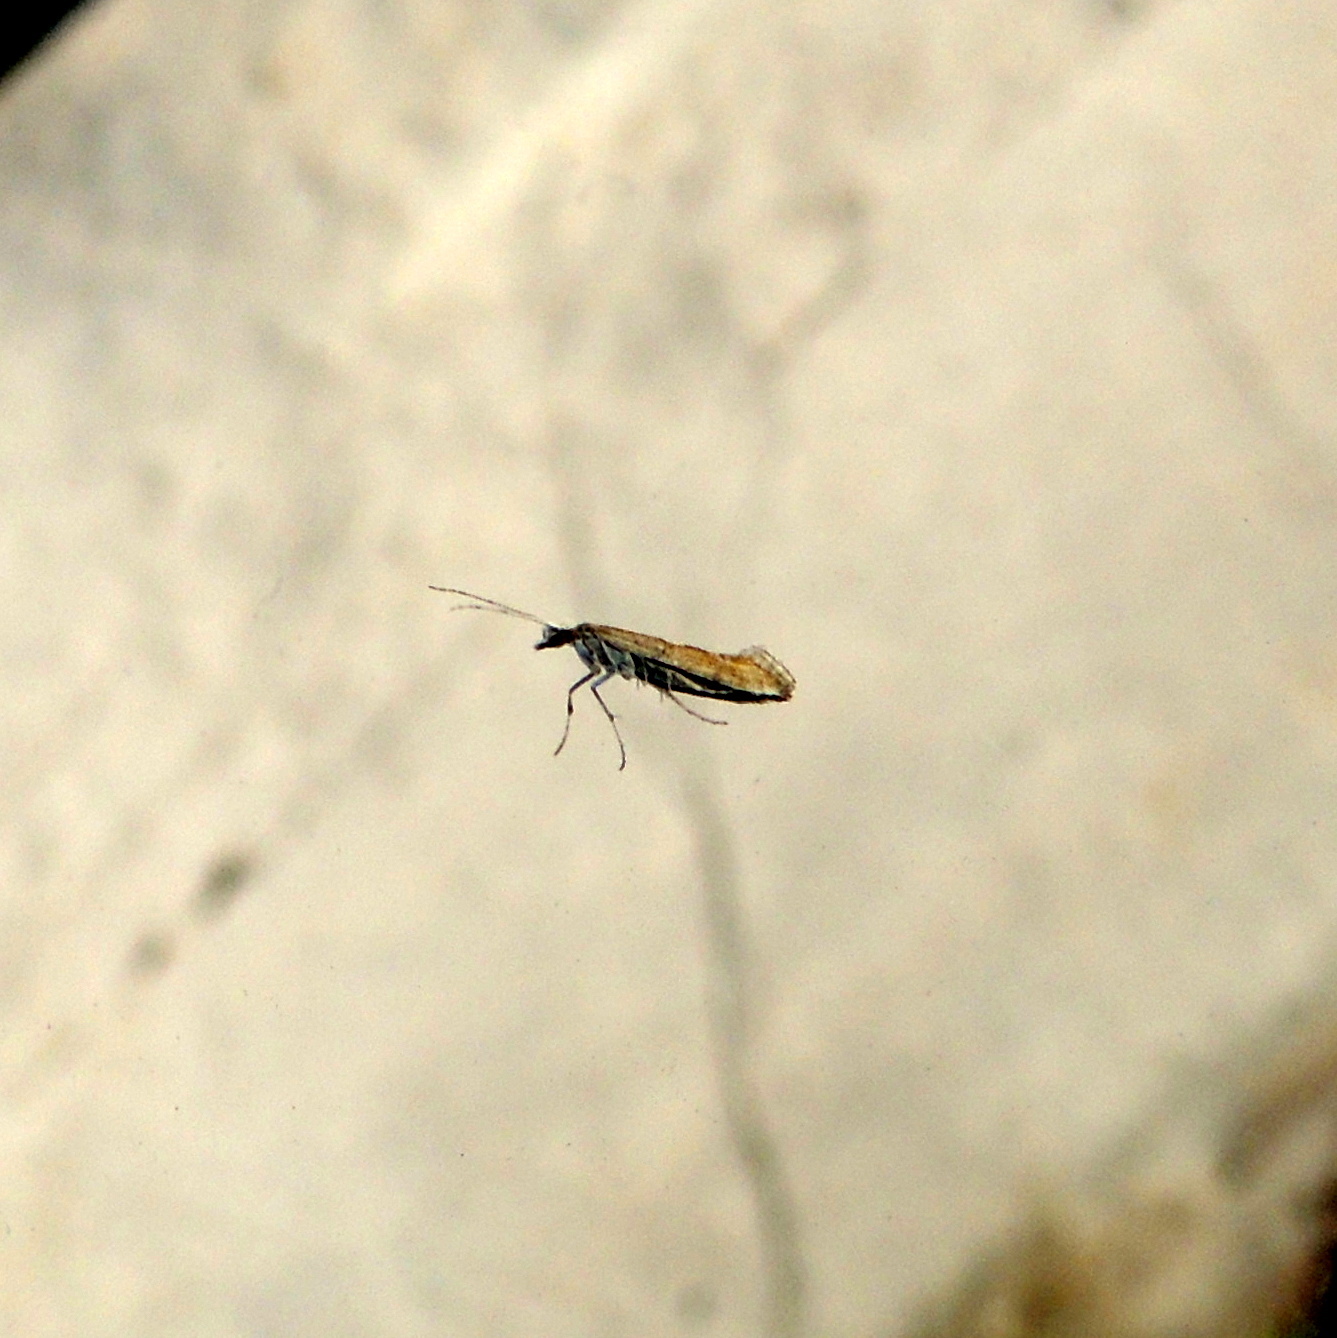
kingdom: Animalia
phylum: Arthropoda
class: Insecta
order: Lepidoptera
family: Plutellidae
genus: Plutella
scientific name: Plutella xylostella
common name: Diamond-back moth
